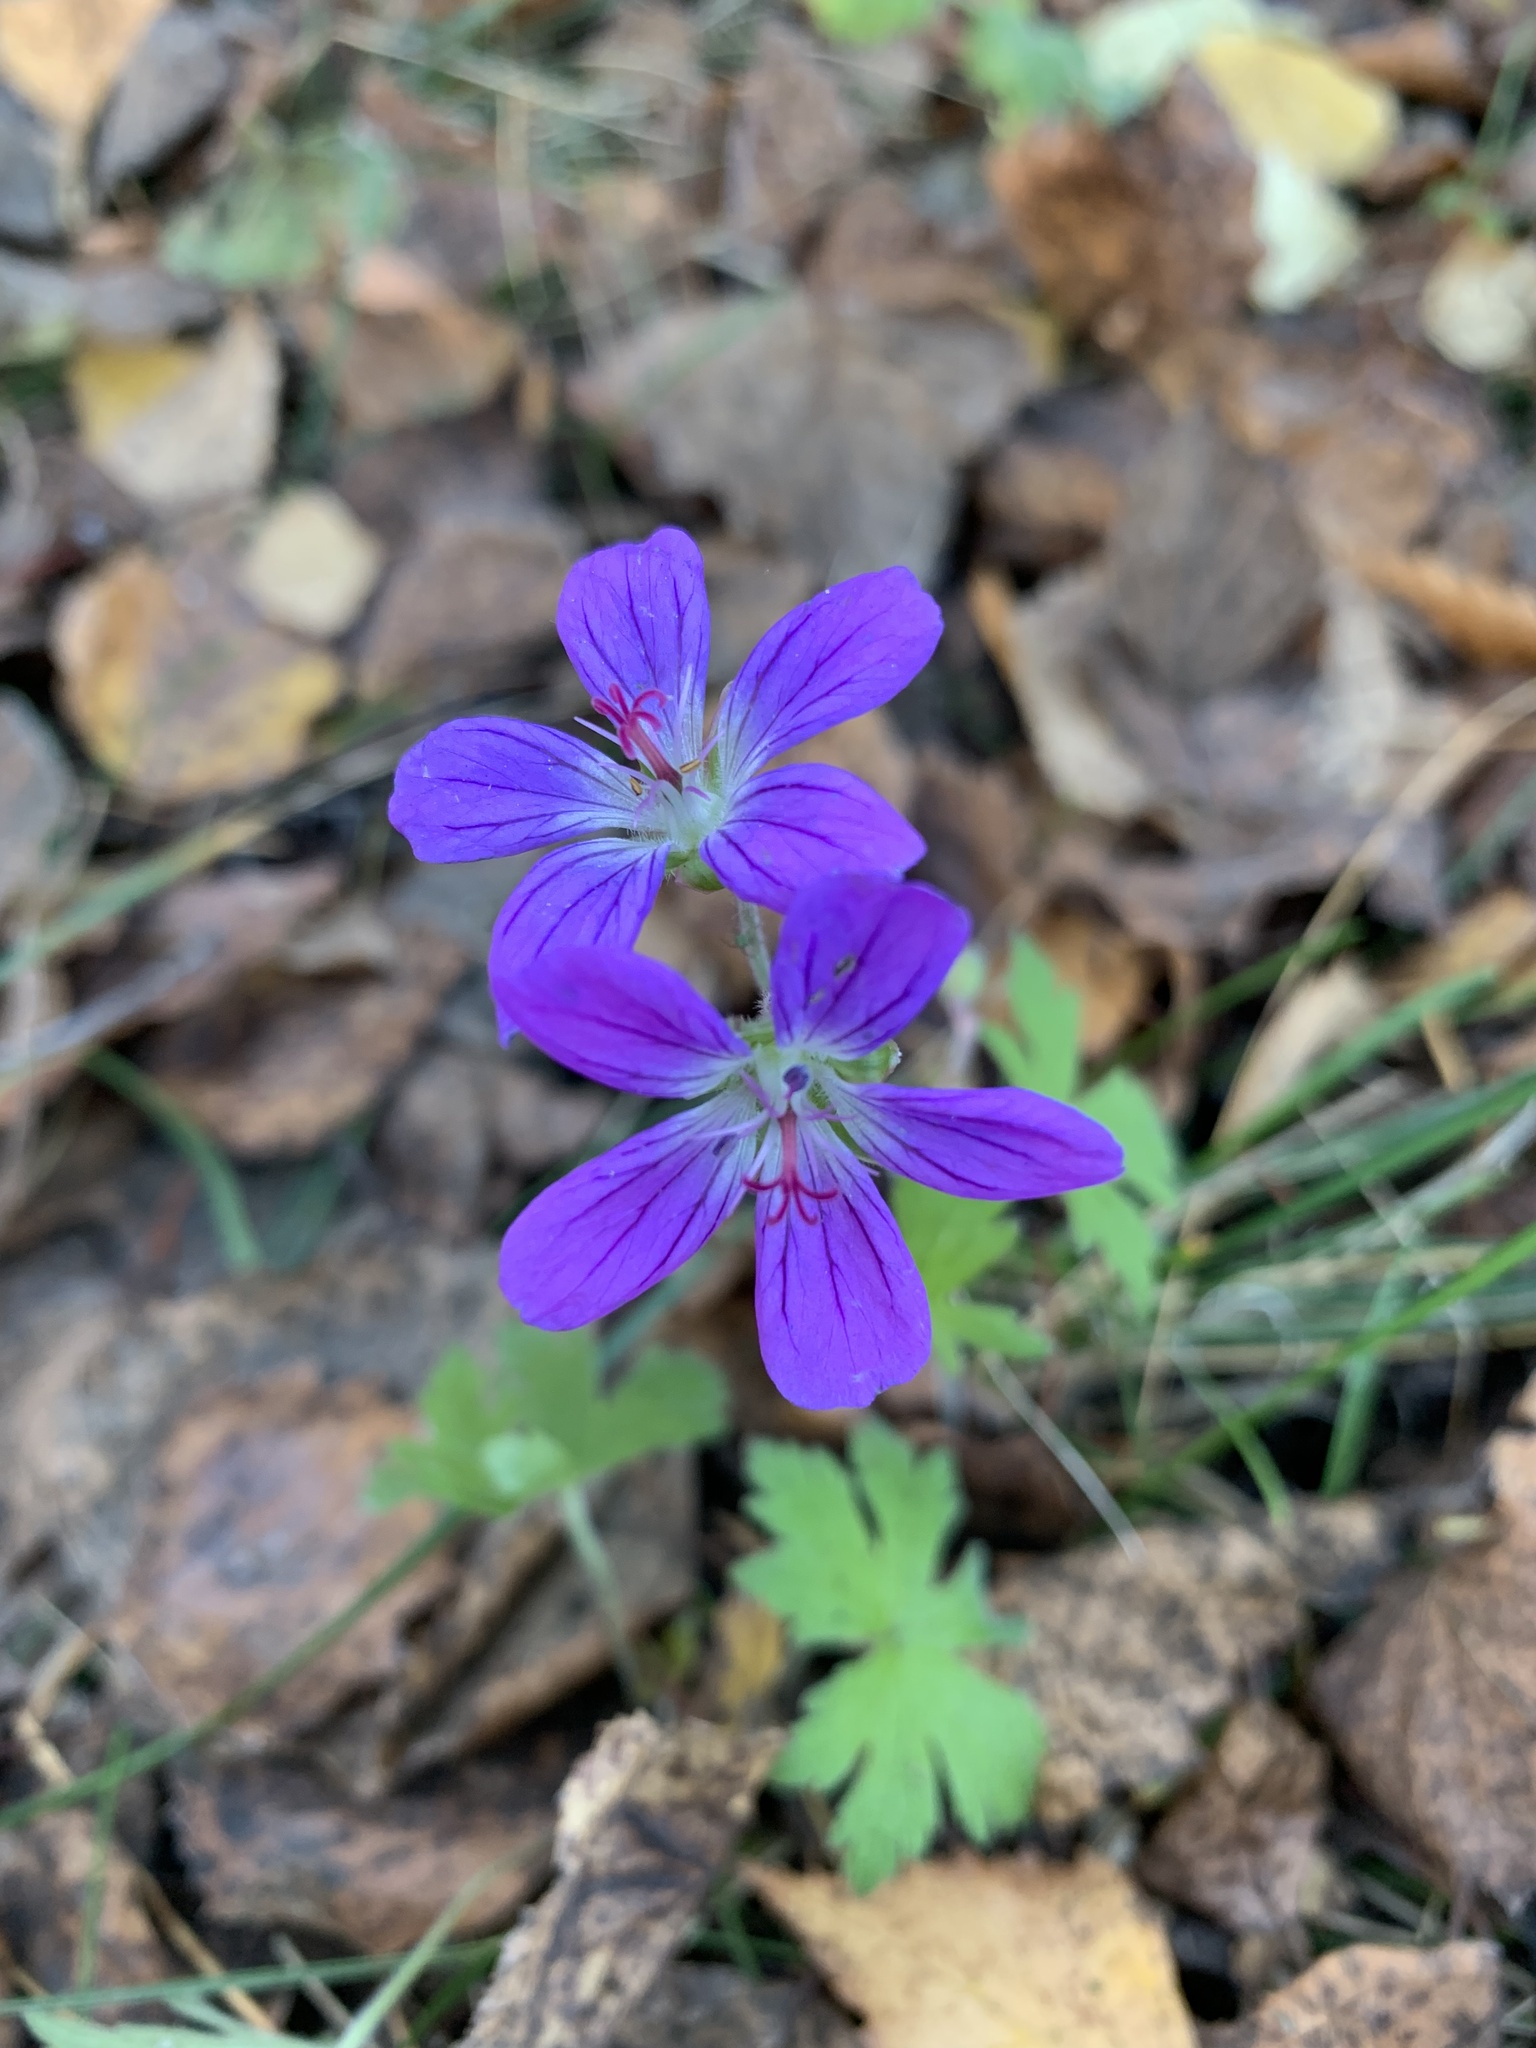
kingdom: Plantae
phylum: Tracheophyta
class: Magnoliopsida
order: Geraniales
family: Geraniaceae
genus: Geranium
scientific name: Geranium sylvaticum
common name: Wood crane's-bill
